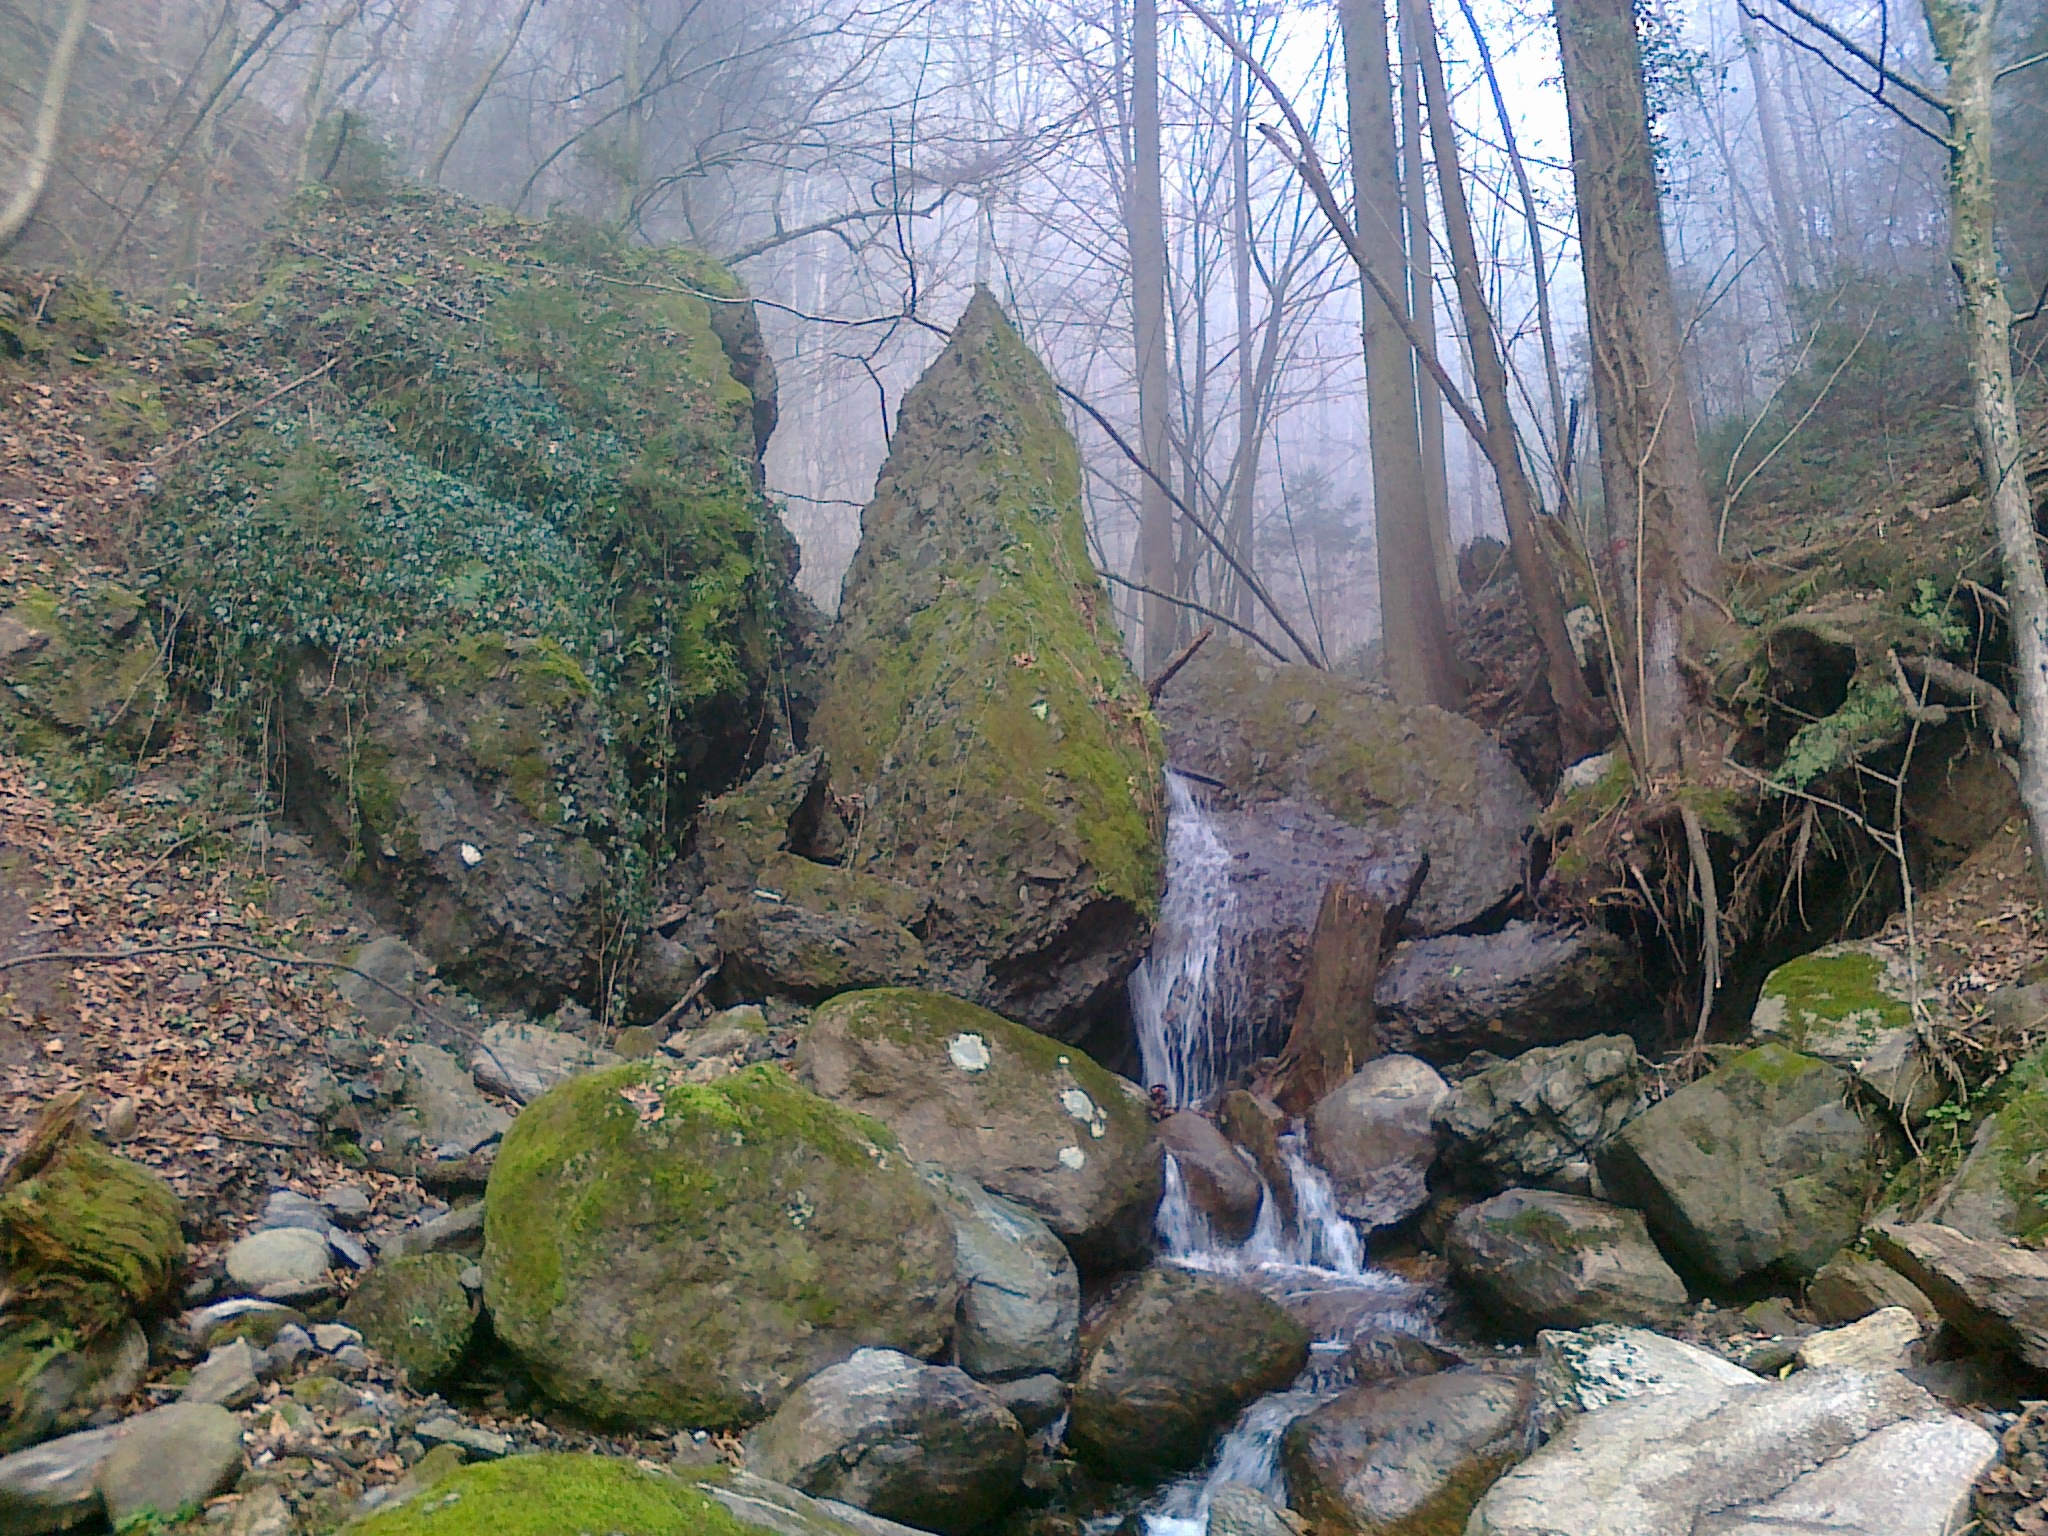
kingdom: Plantae
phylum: Tracheophyta
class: Magnoliopsida
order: Apiales
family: Araliaceae
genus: Hedera
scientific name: Hedera helix
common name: Ivy
